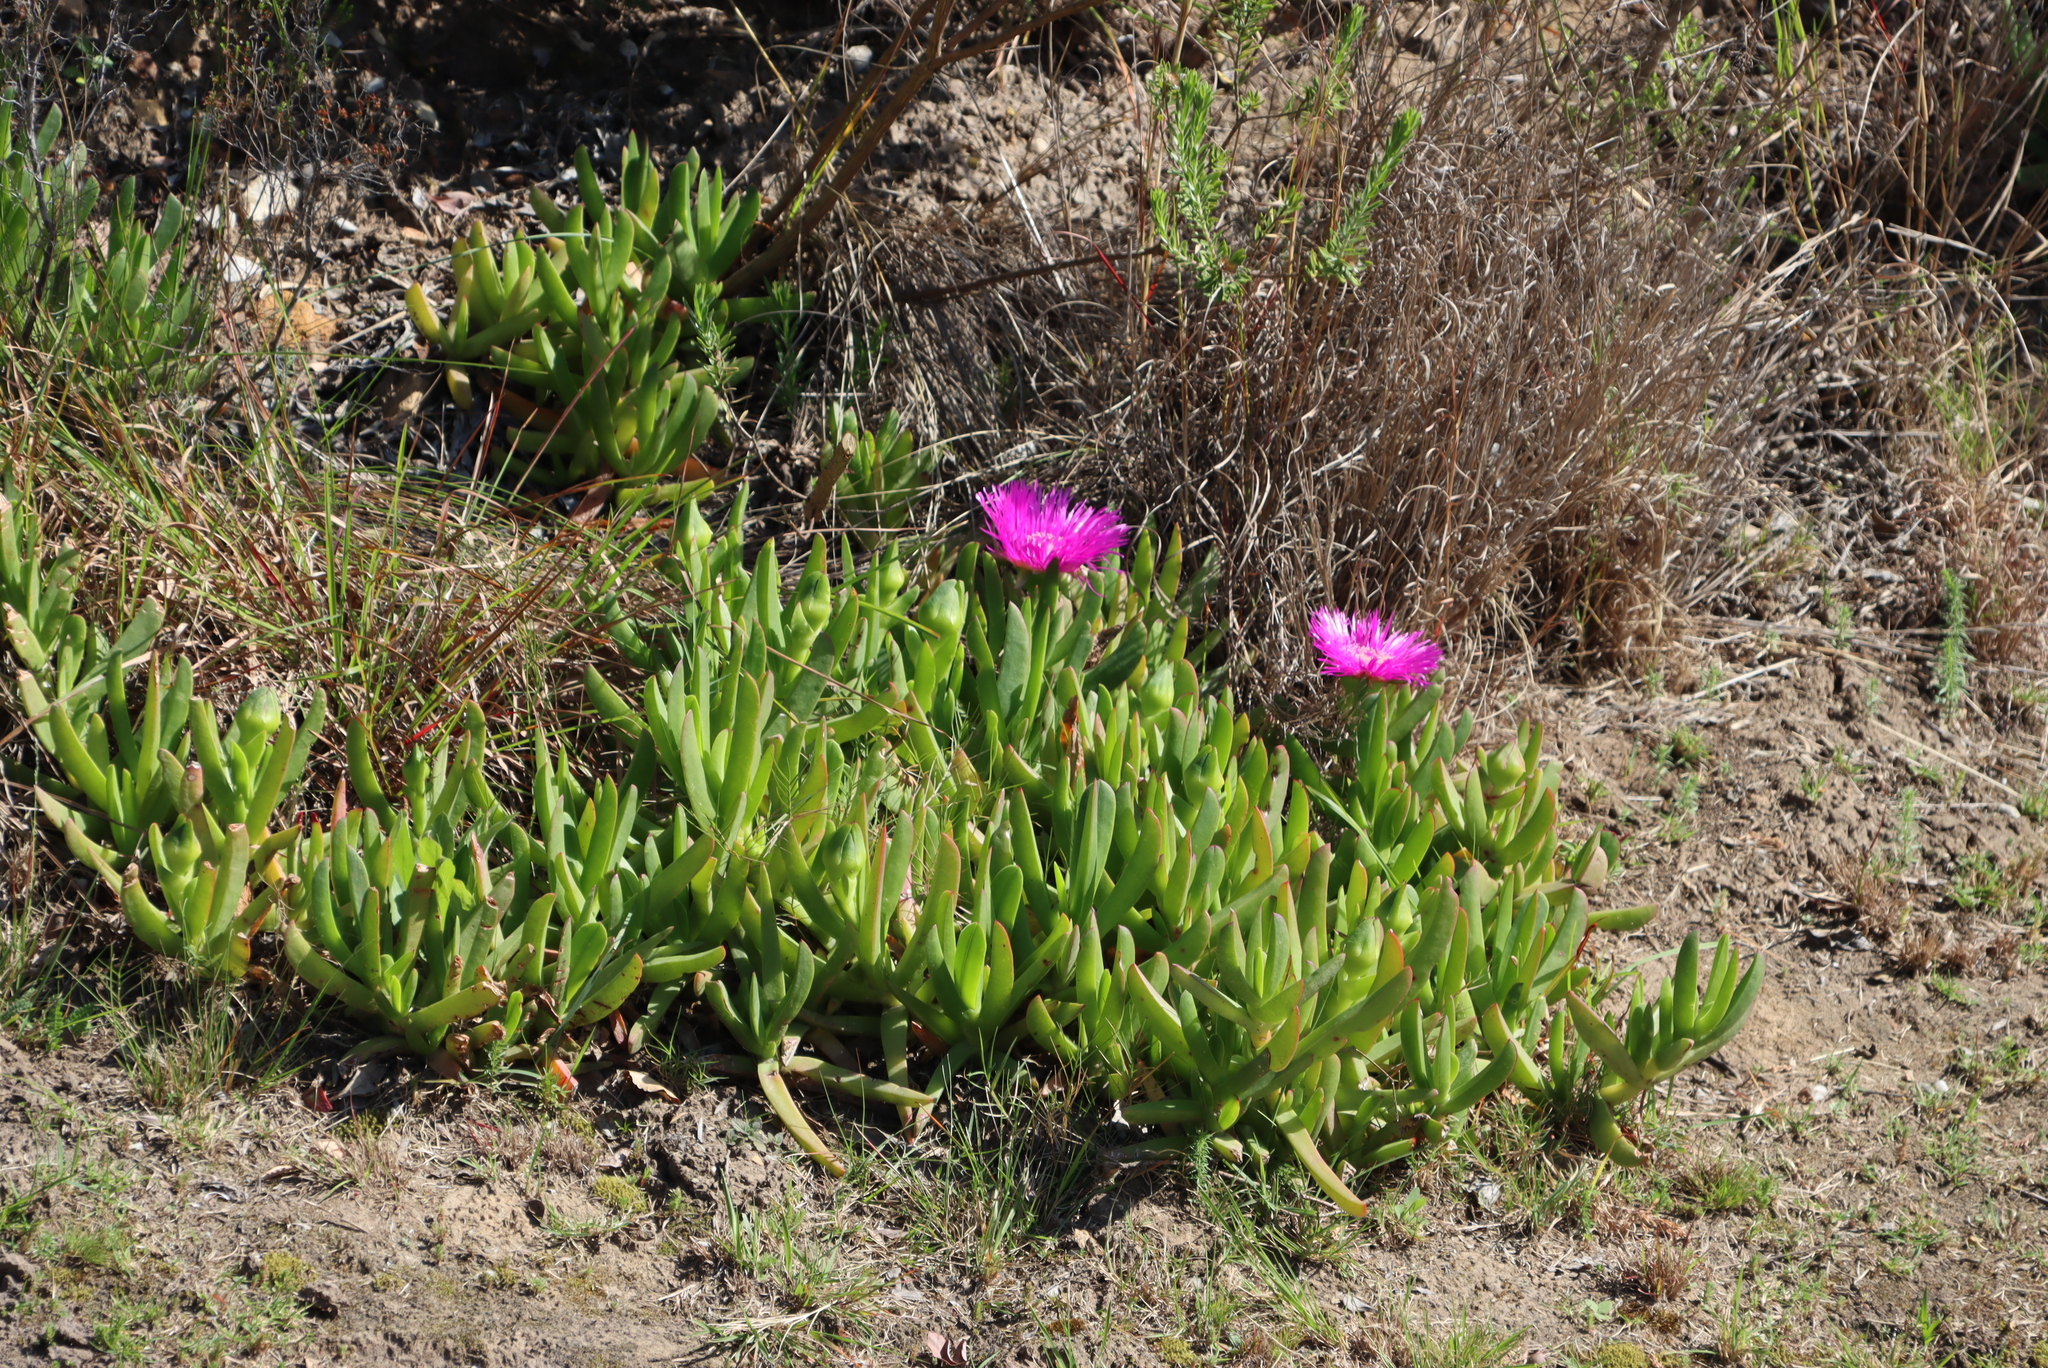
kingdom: Plantae
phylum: Tracheophyta
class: Magnoliopsida
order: Caryophyllales
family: Aizoaceae
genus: Carpobrotus
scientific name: Carpobrotus deliciosus
